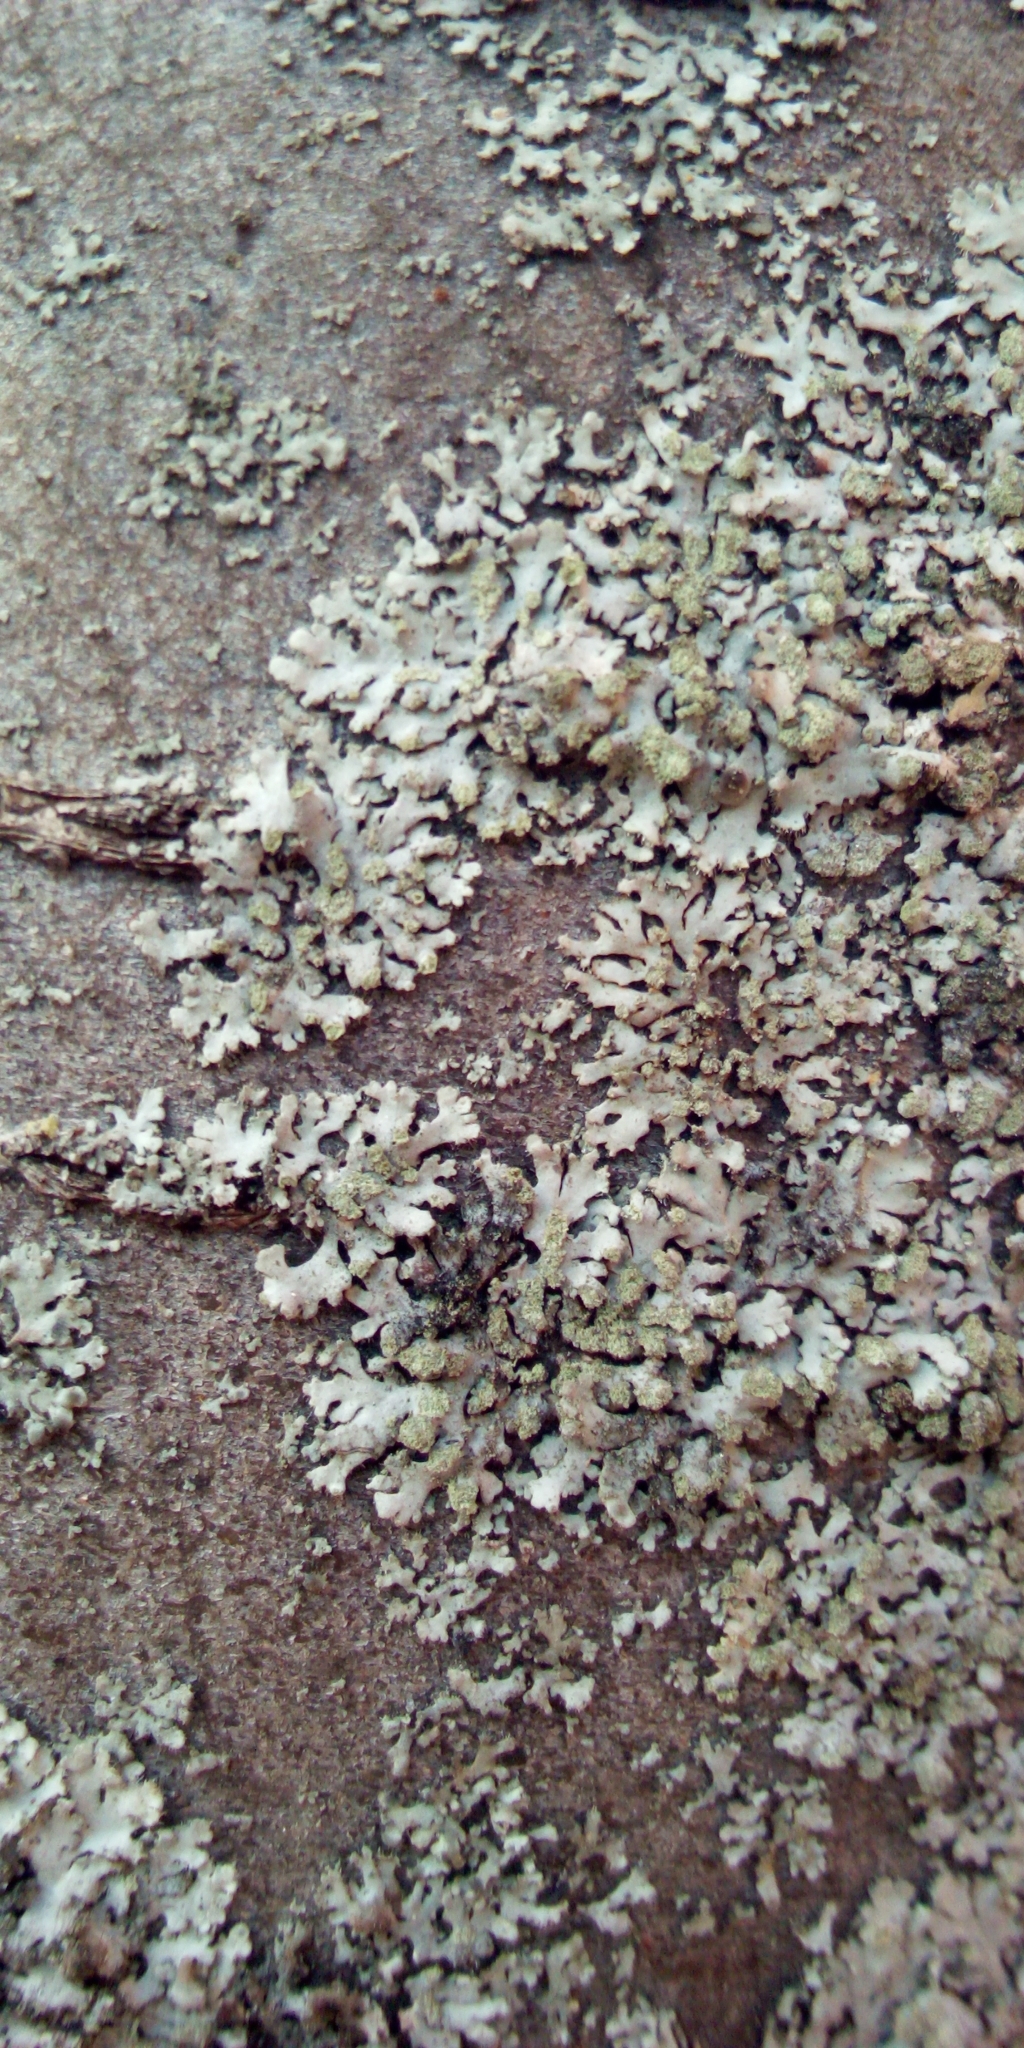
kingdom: Fungi
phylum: Ascomycota
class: Lecanoromycetes
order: Caliciales
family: Physciaceae
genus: Phaeophyscia
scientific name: Phaeophyscia orbicularis
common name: Mealy shadow lichen
